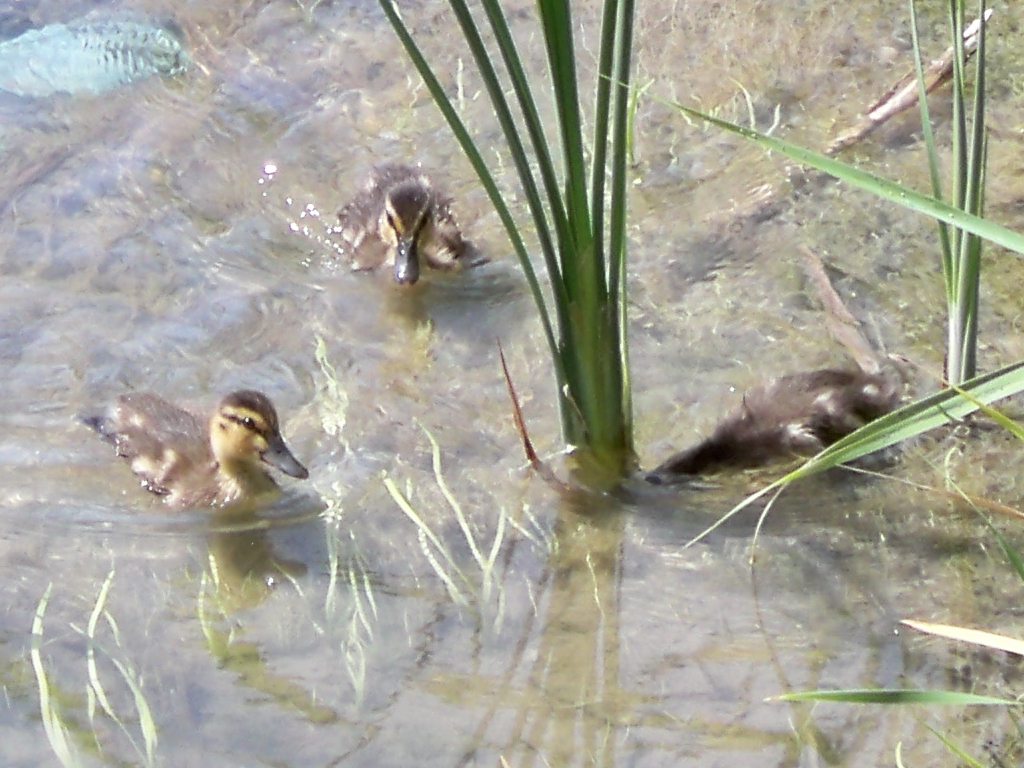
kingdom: Animalia
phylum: Chordata
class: Aves
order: Anseriformes
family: Anatidae
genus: Anas
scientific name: Anas platyrhynchos
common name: Mallard
